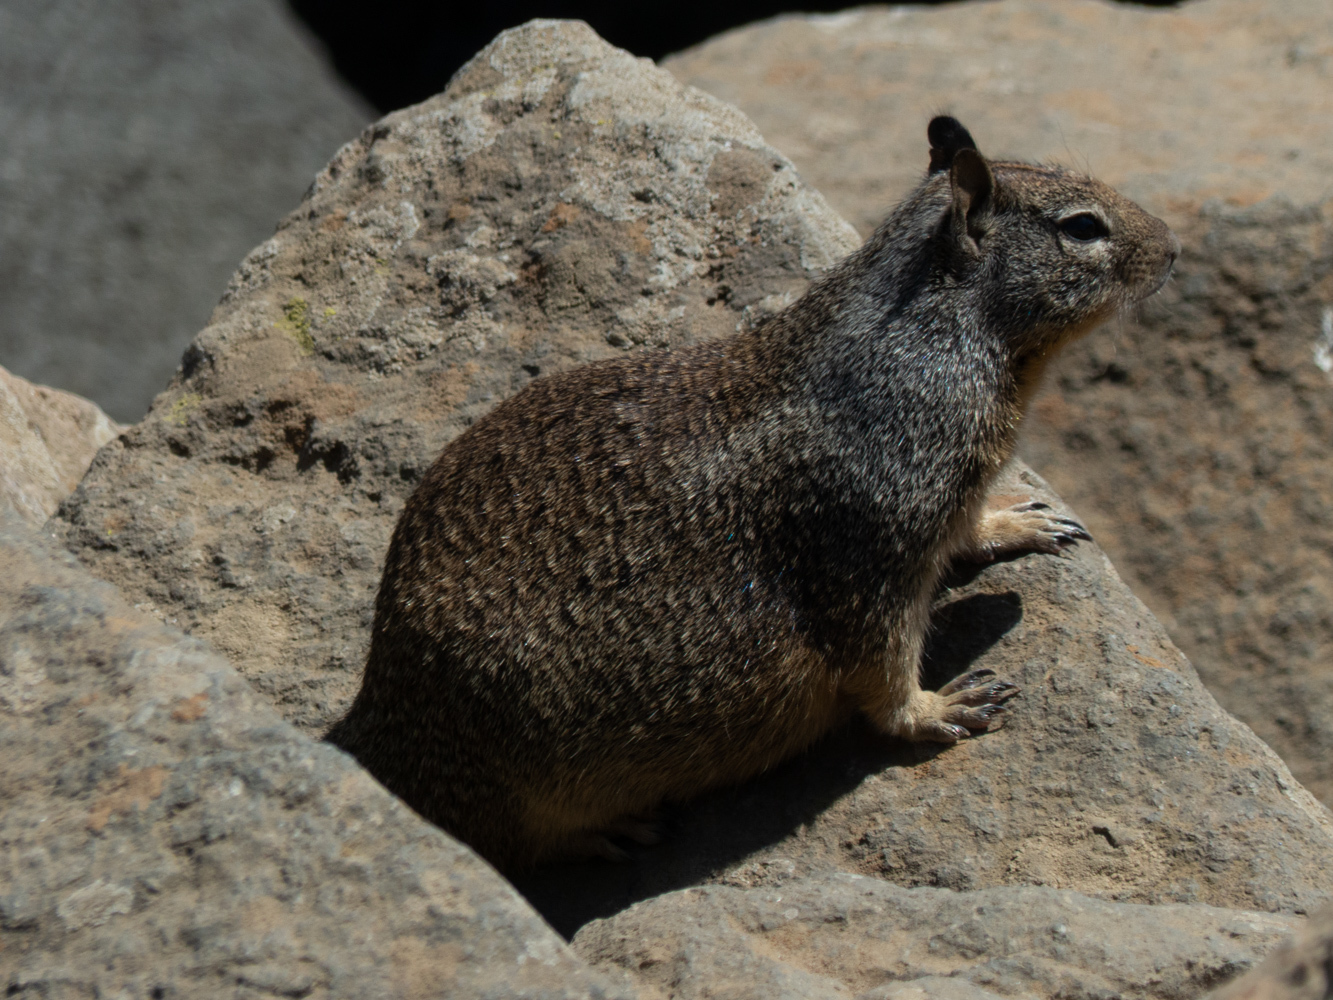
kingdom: Animalia
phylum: Chordata
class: Mammalia
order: Rodentia
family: Sciuridae
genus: Otospermophilus
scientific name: Otospermophilus beecheyi
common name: California ground squirrel
